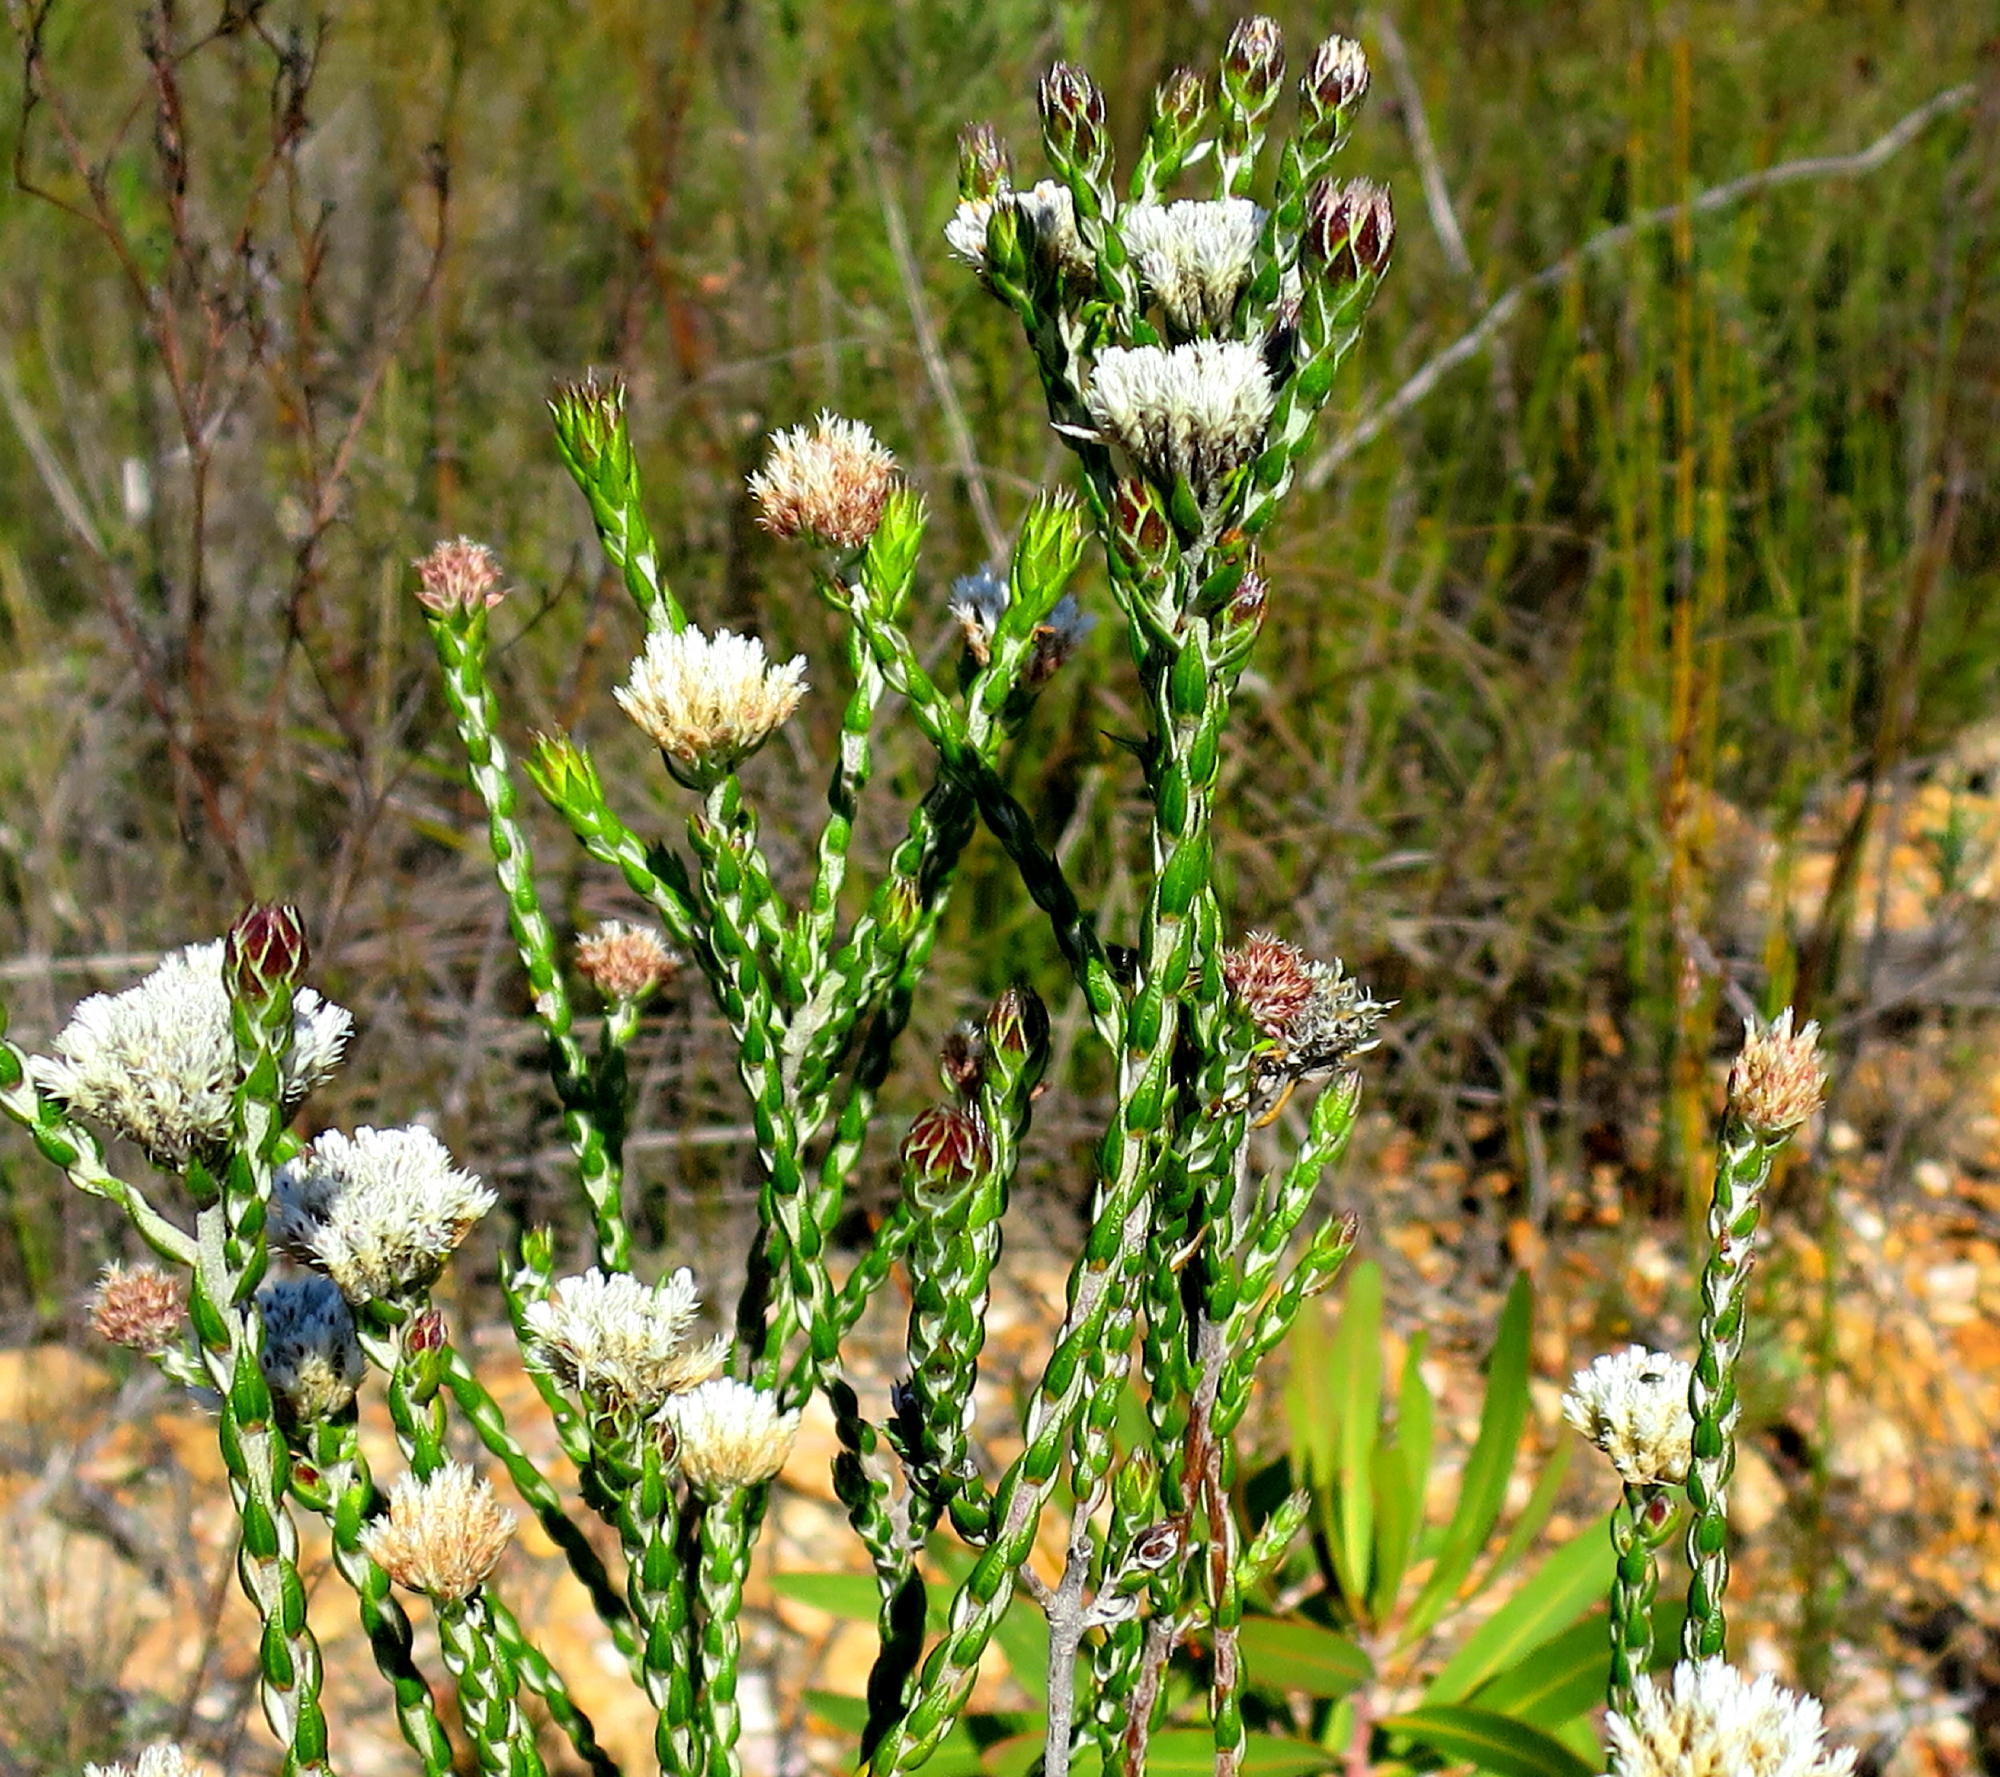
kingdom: Plantae
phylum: Tracheophyta
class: Magnoliopsida
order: Asterales
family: Asteraceae
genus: Metalasia
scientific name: Metalasia pulcherrima
